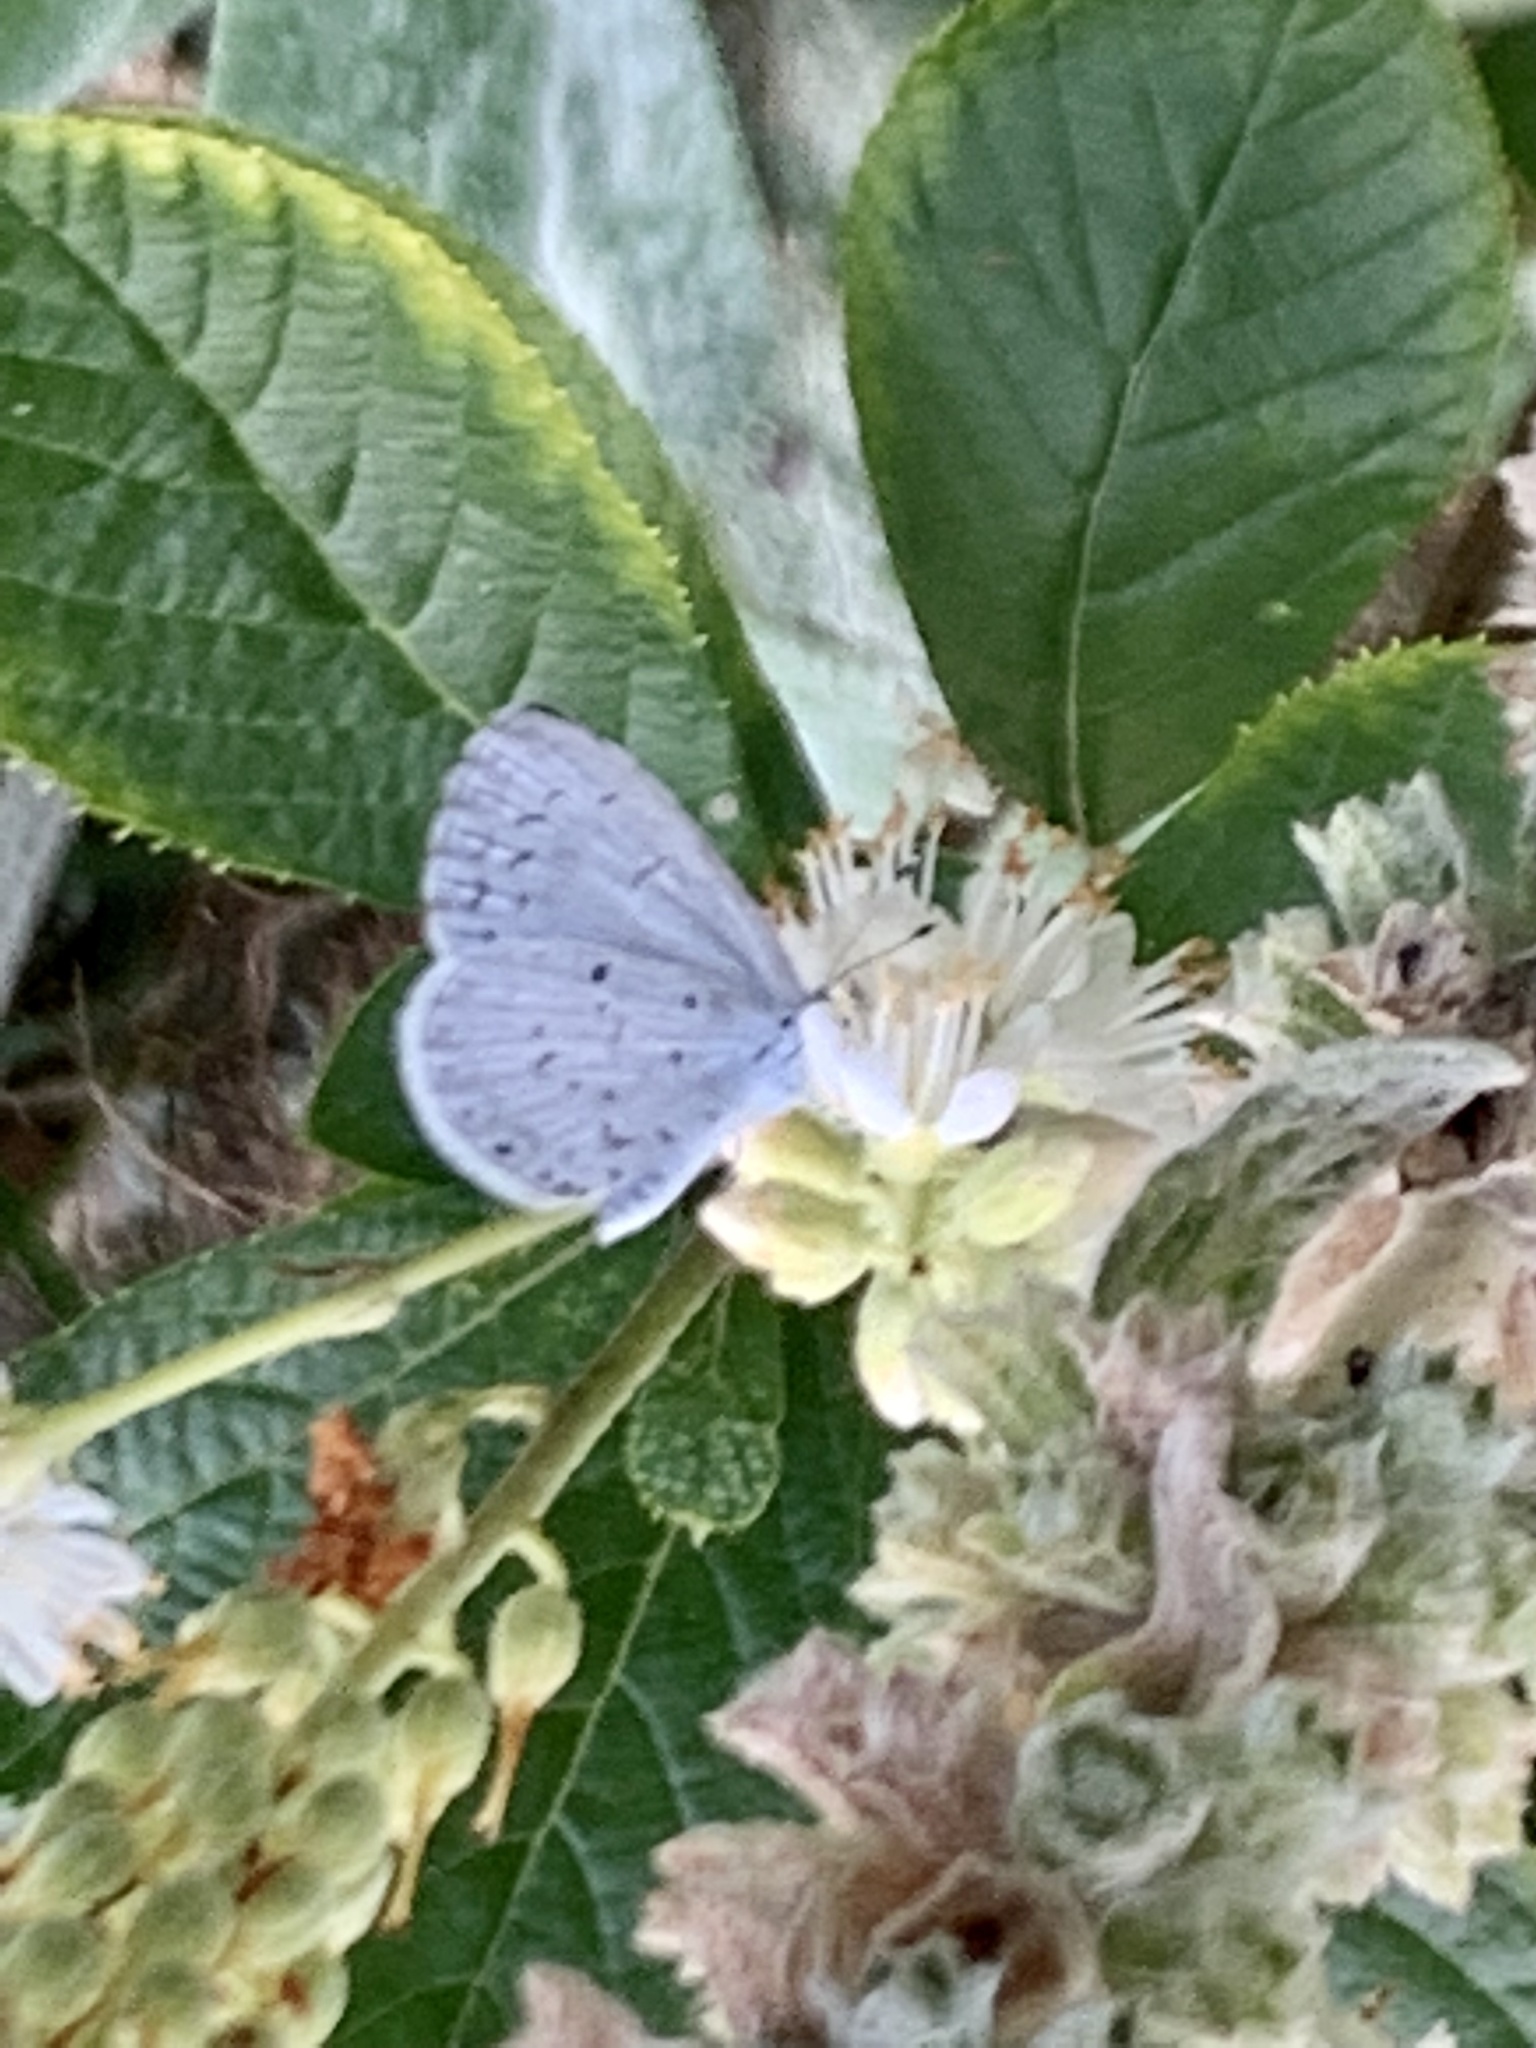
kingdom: Animalia
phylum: Arthropoda
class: Insecta
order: Lepidoptera
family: Lycaenidae
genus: Cyaniris
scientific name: Cyaniris neglecta
